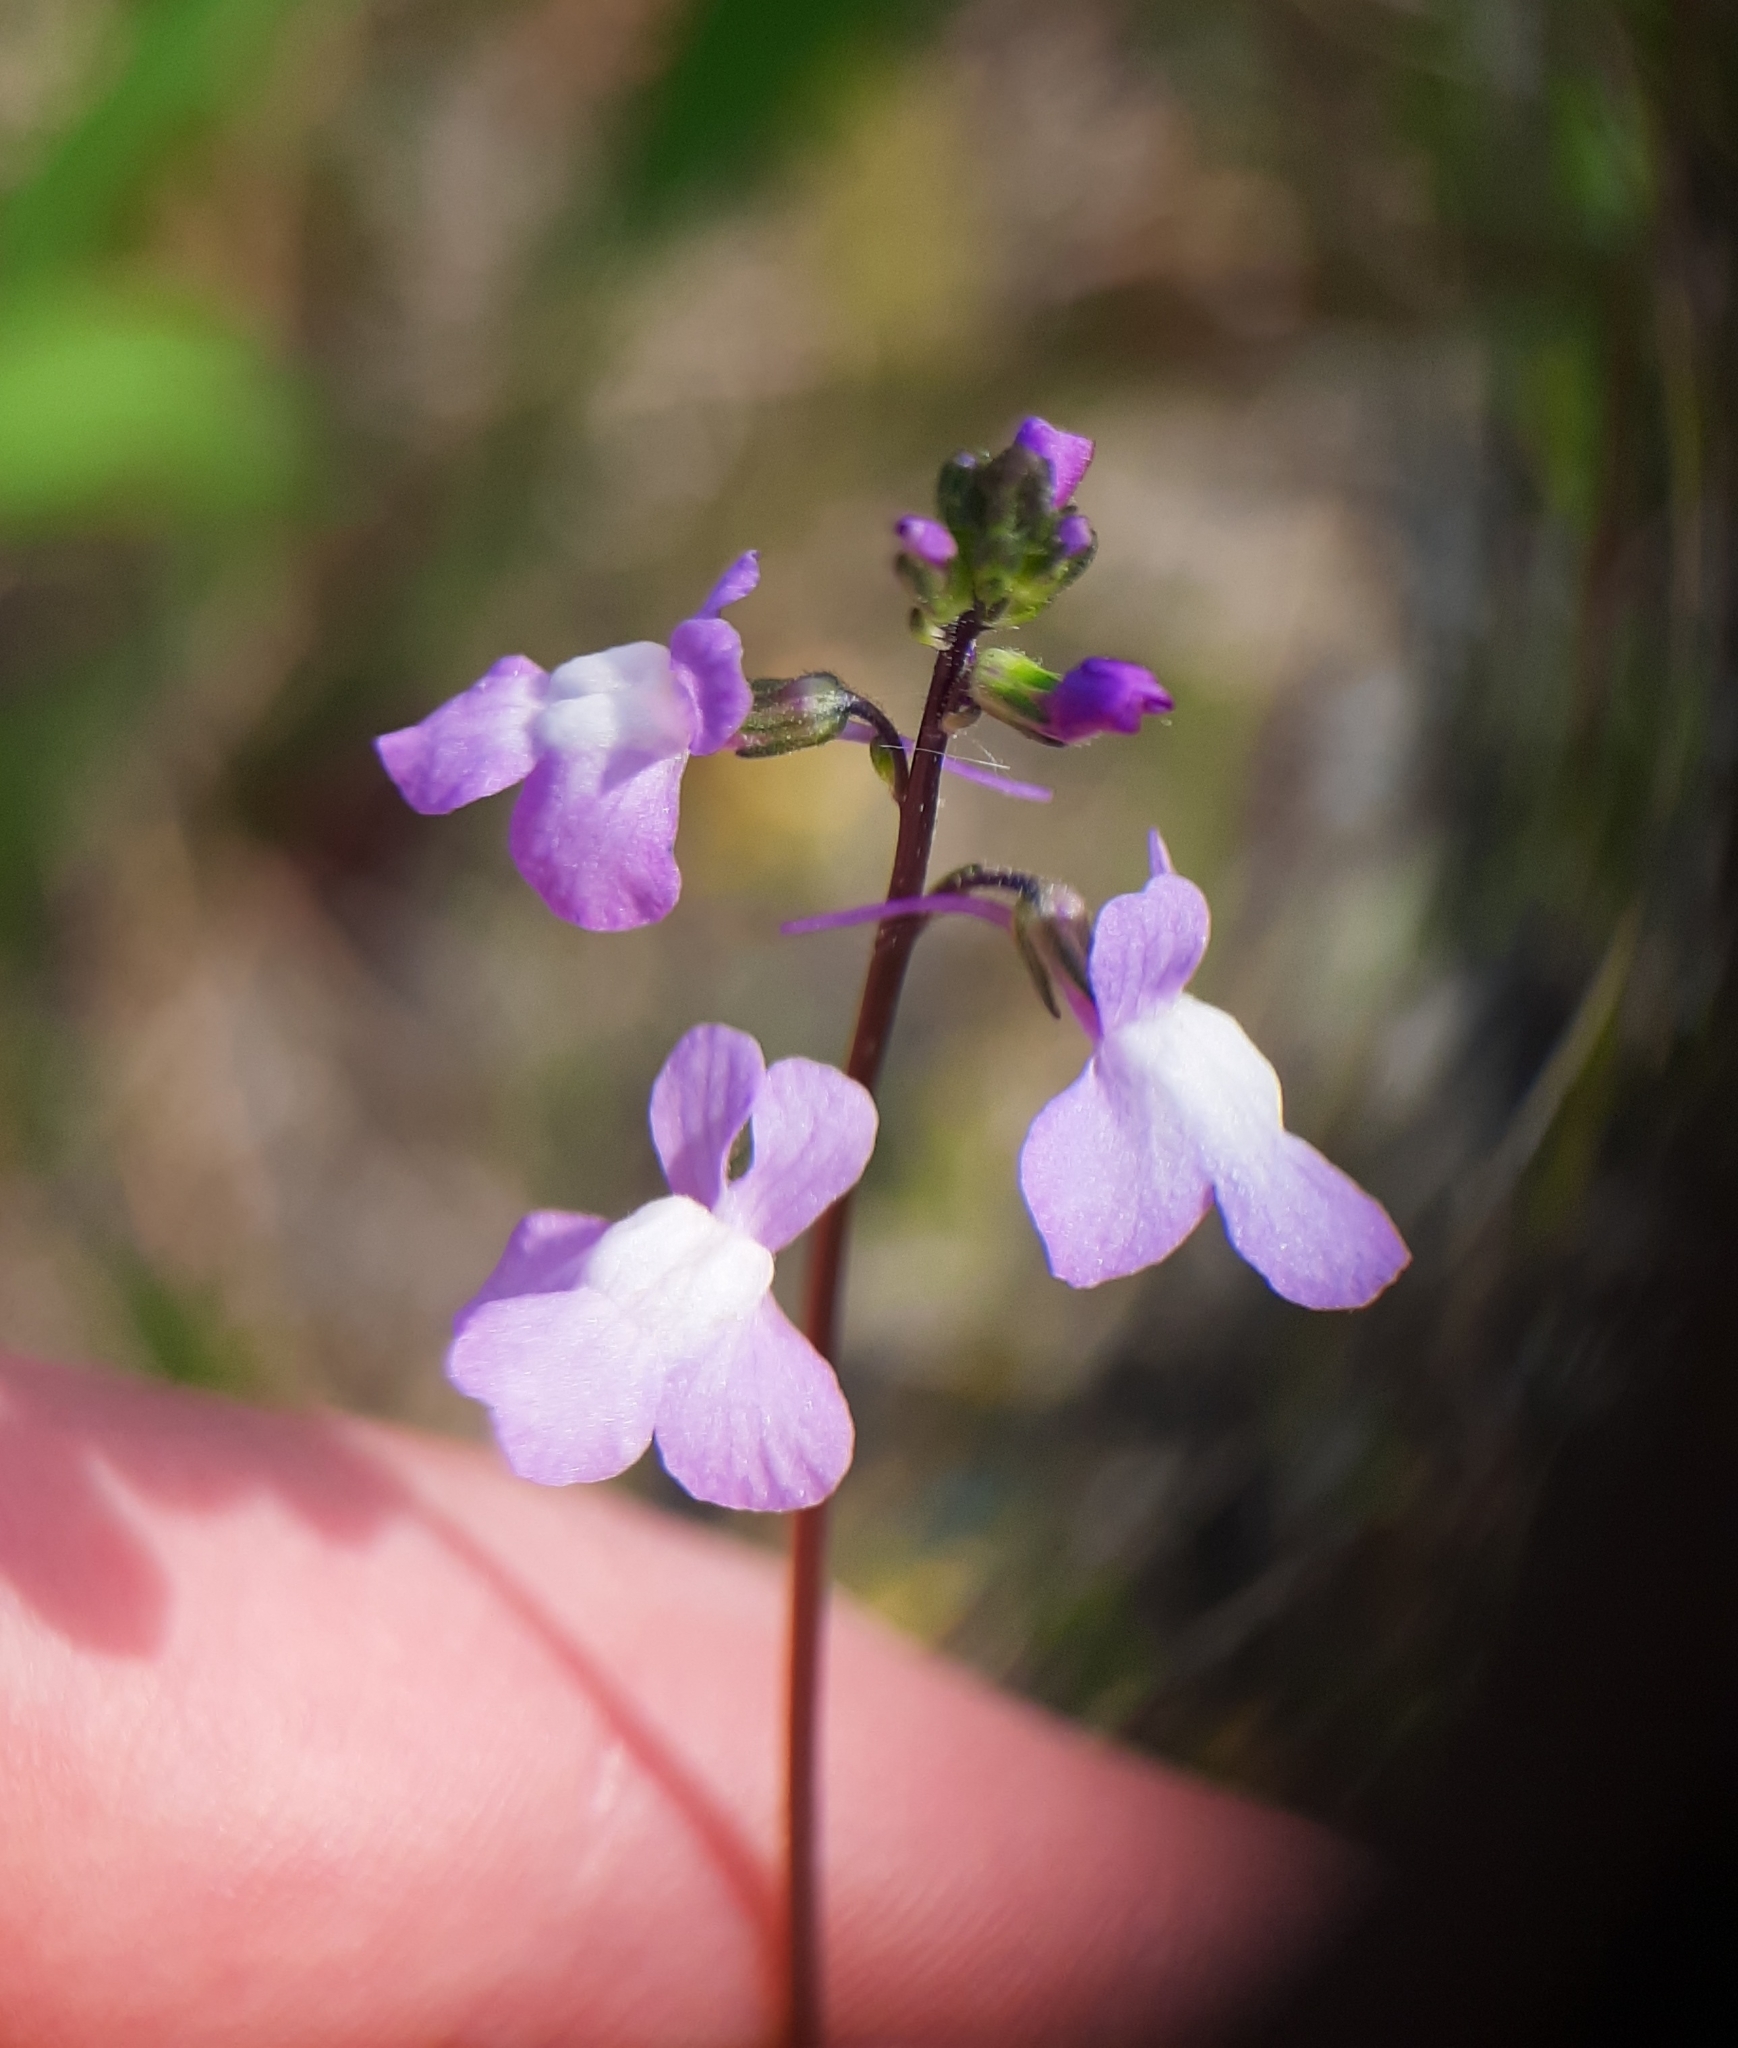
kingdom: Plantae
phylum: Tracheophyta
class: Magnoliopsida
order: Lamiales
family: Plantaginaceae
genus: Nuttallanthus
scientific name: Nuttallanthus canadensis
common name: Blue toadflax
